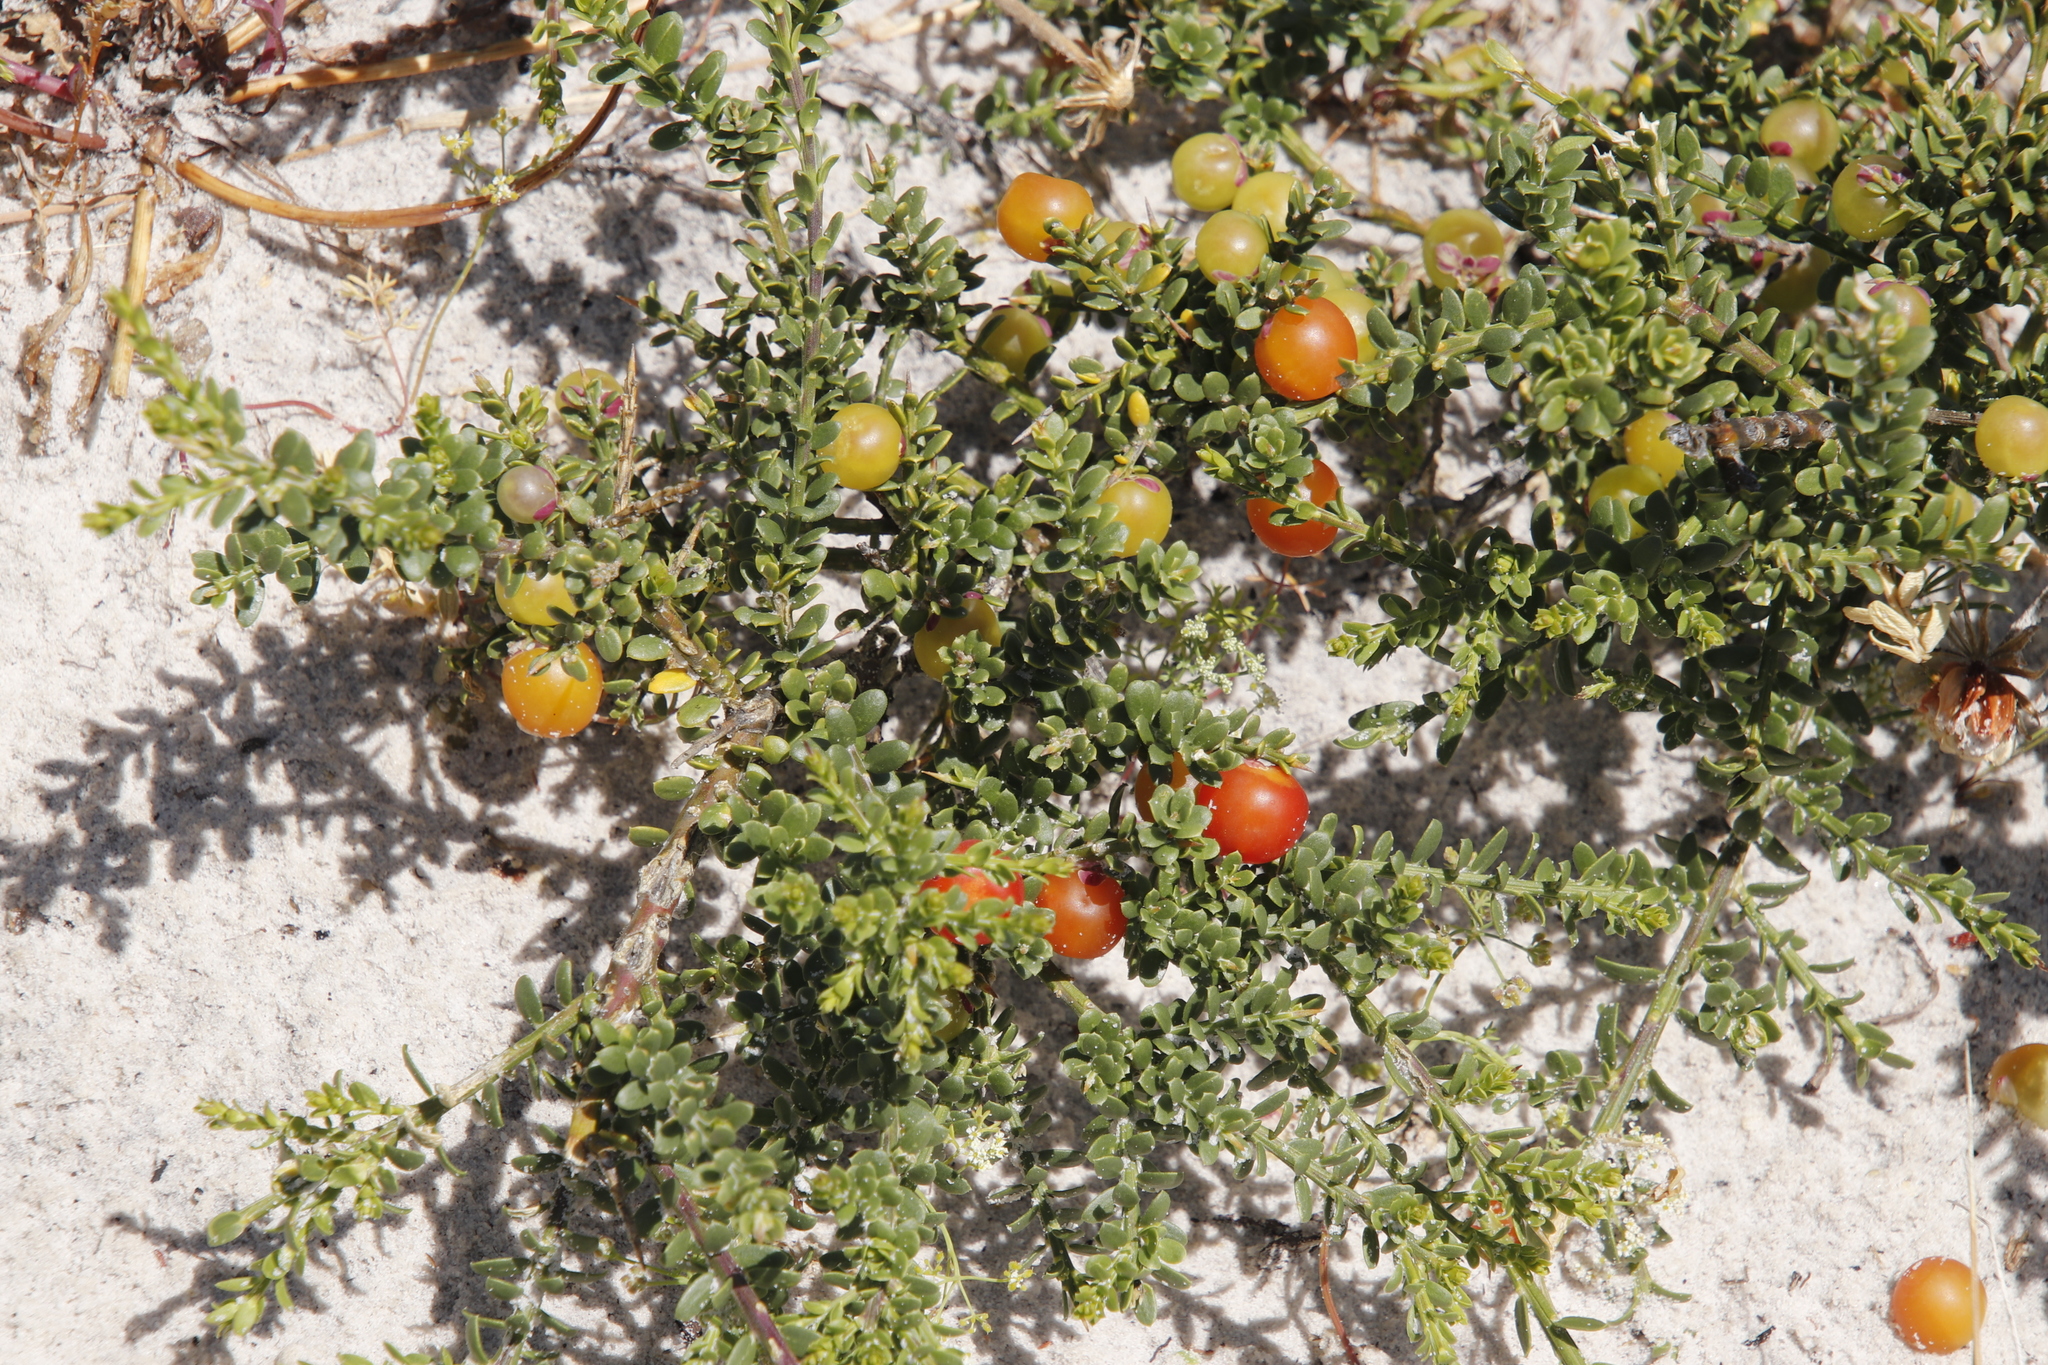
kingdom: Plantae
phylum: Tracheophyta
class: Magnoliopsida
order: Fabales
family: Polygalaceae
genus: Muraltia
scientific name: Muraltia spinosa
